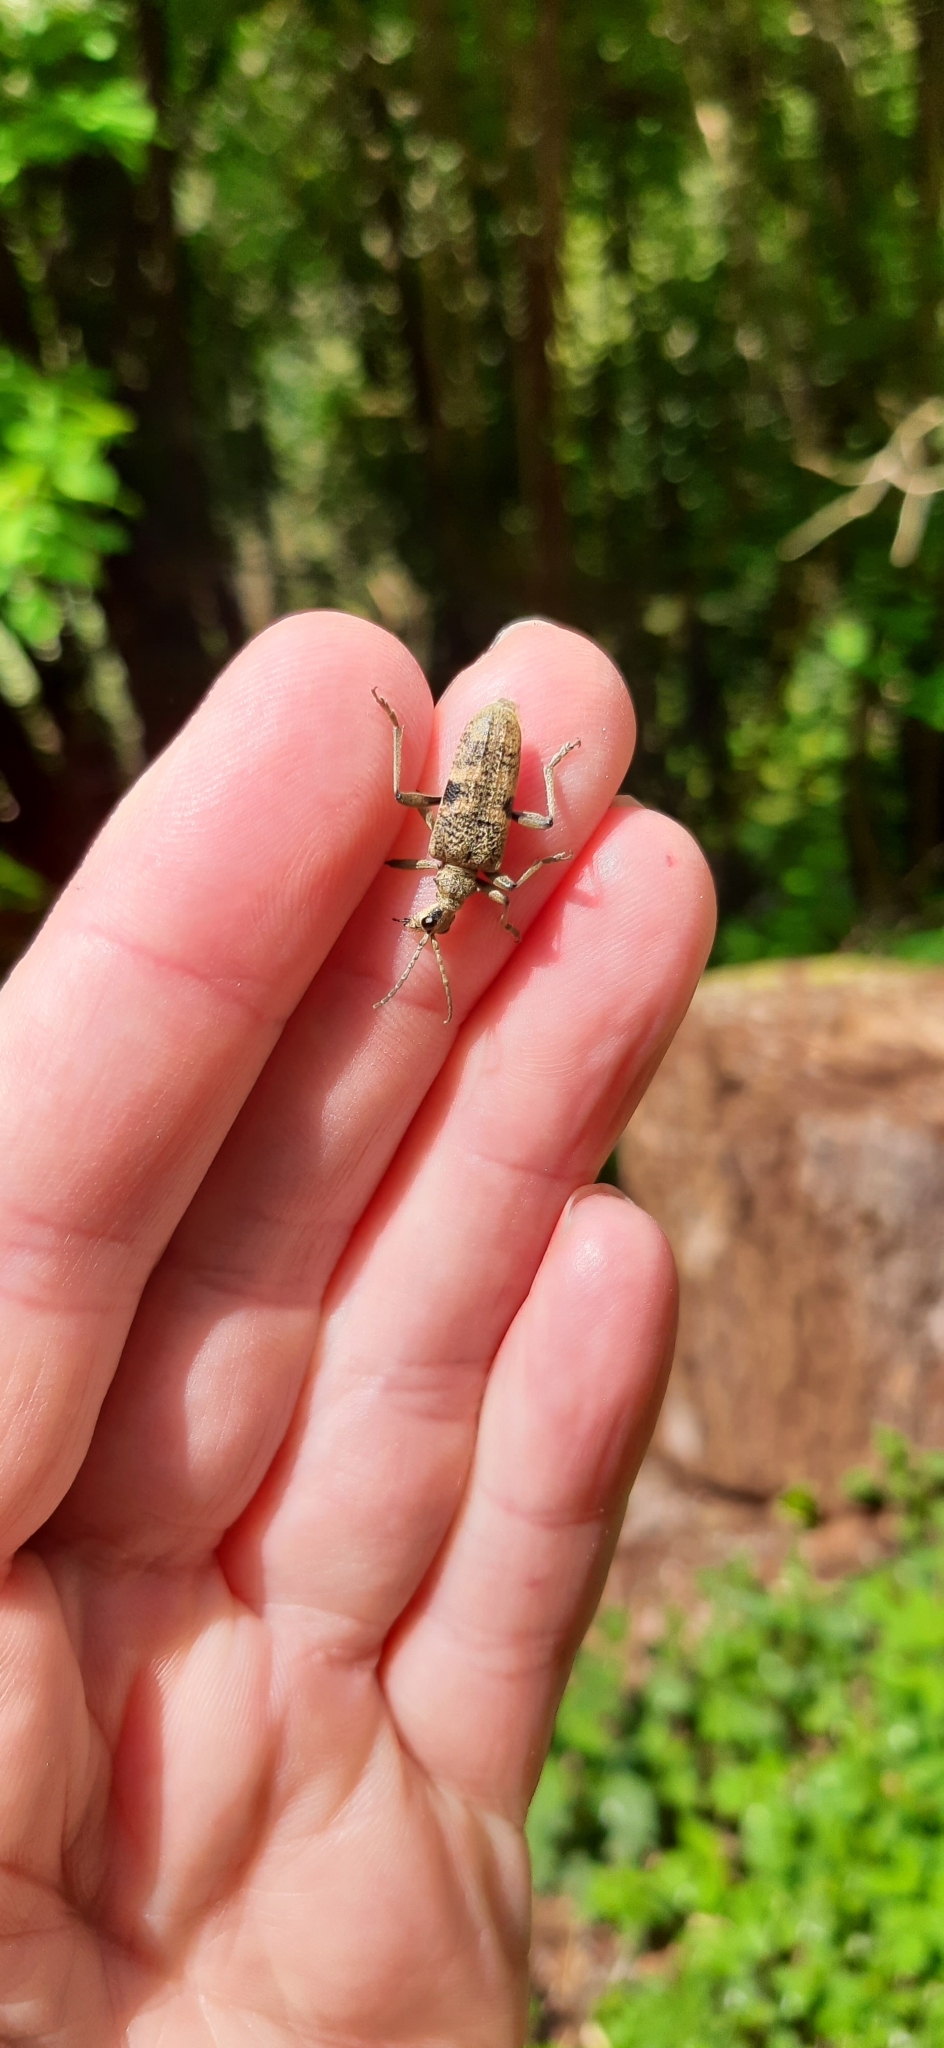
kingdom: Animalia
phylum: Arthropoda
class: Insecta
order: Coleoptera
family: Cerambycidae
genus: Rhagium
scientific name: Rhagium mordax
